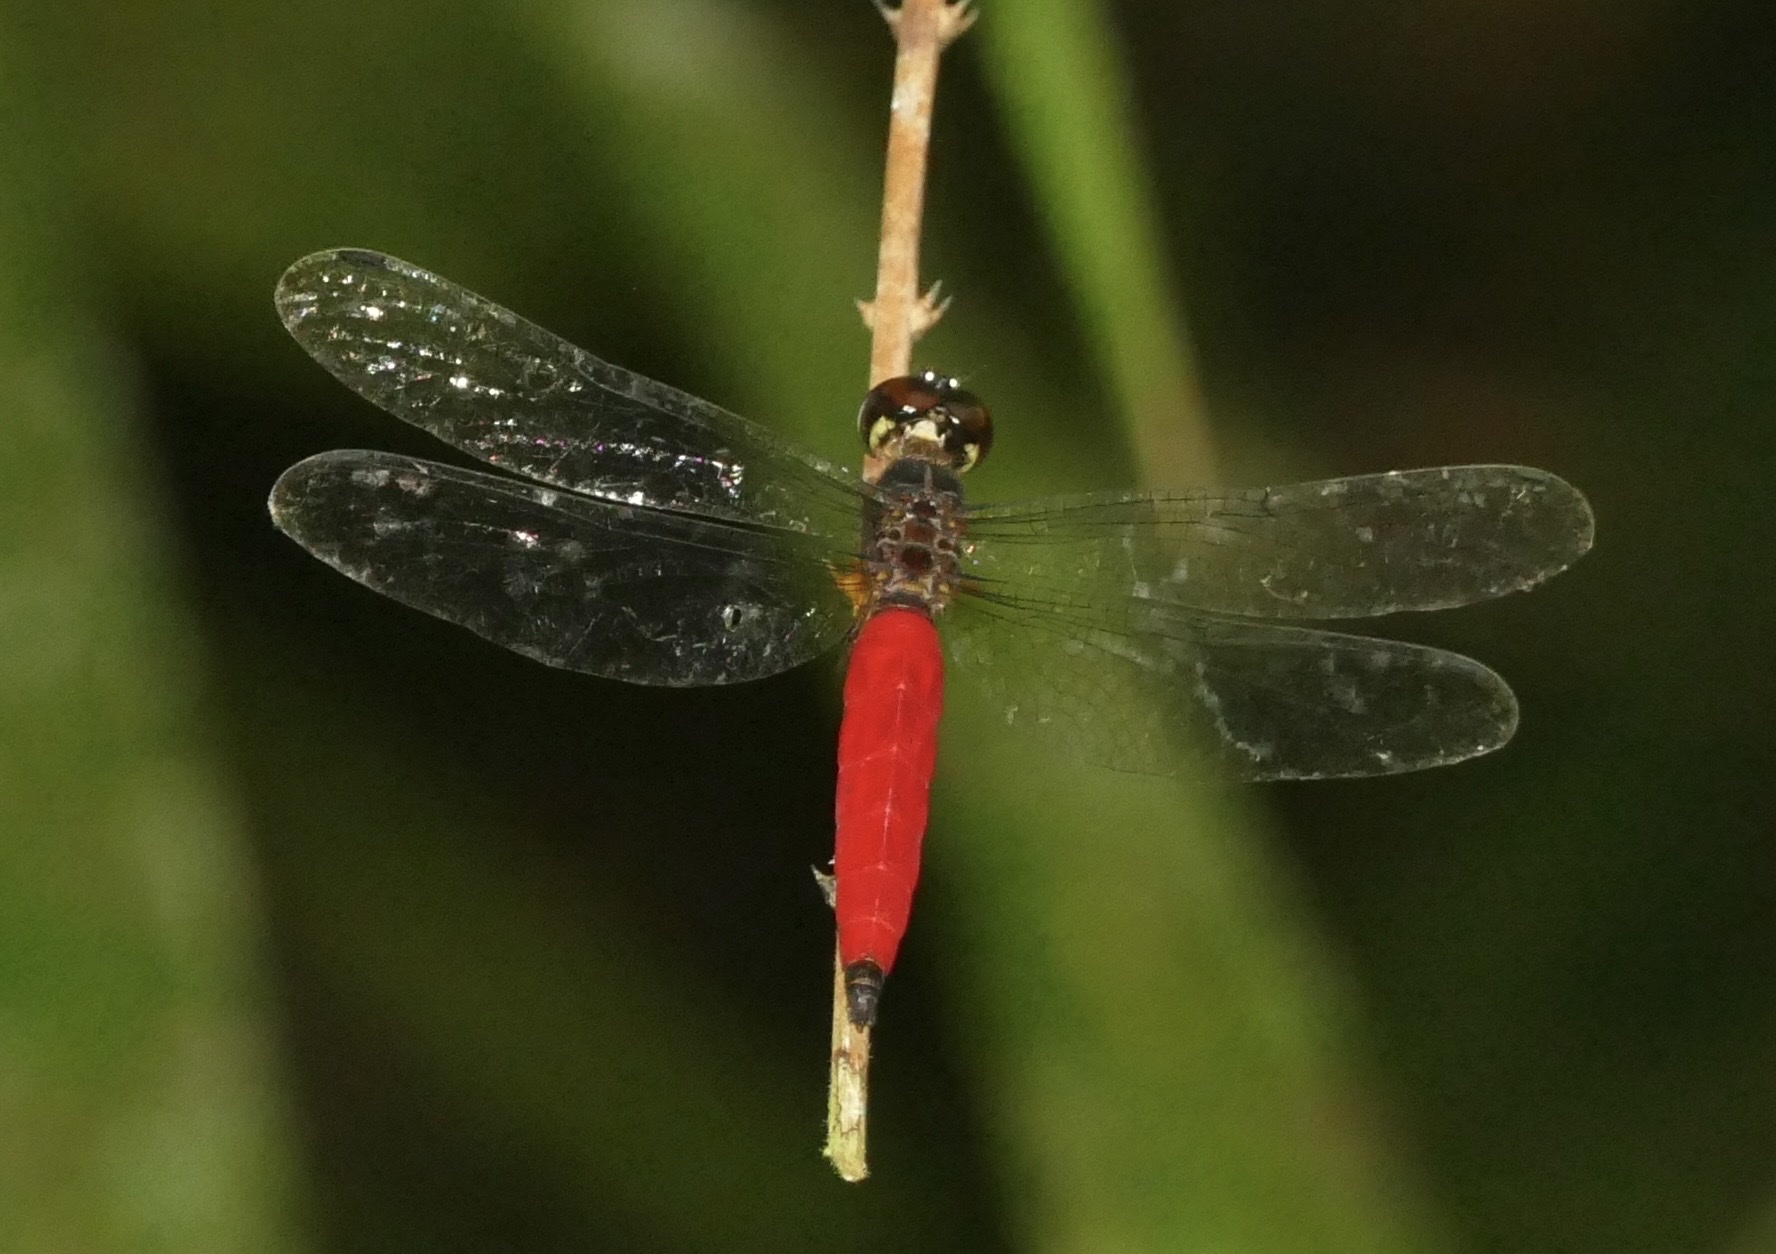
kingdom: Animalia
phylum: Arthropoda
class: Insecta
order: Odonata
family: Libellulidae
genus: Lyriothemis
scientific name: Lyriothemis meyeri
